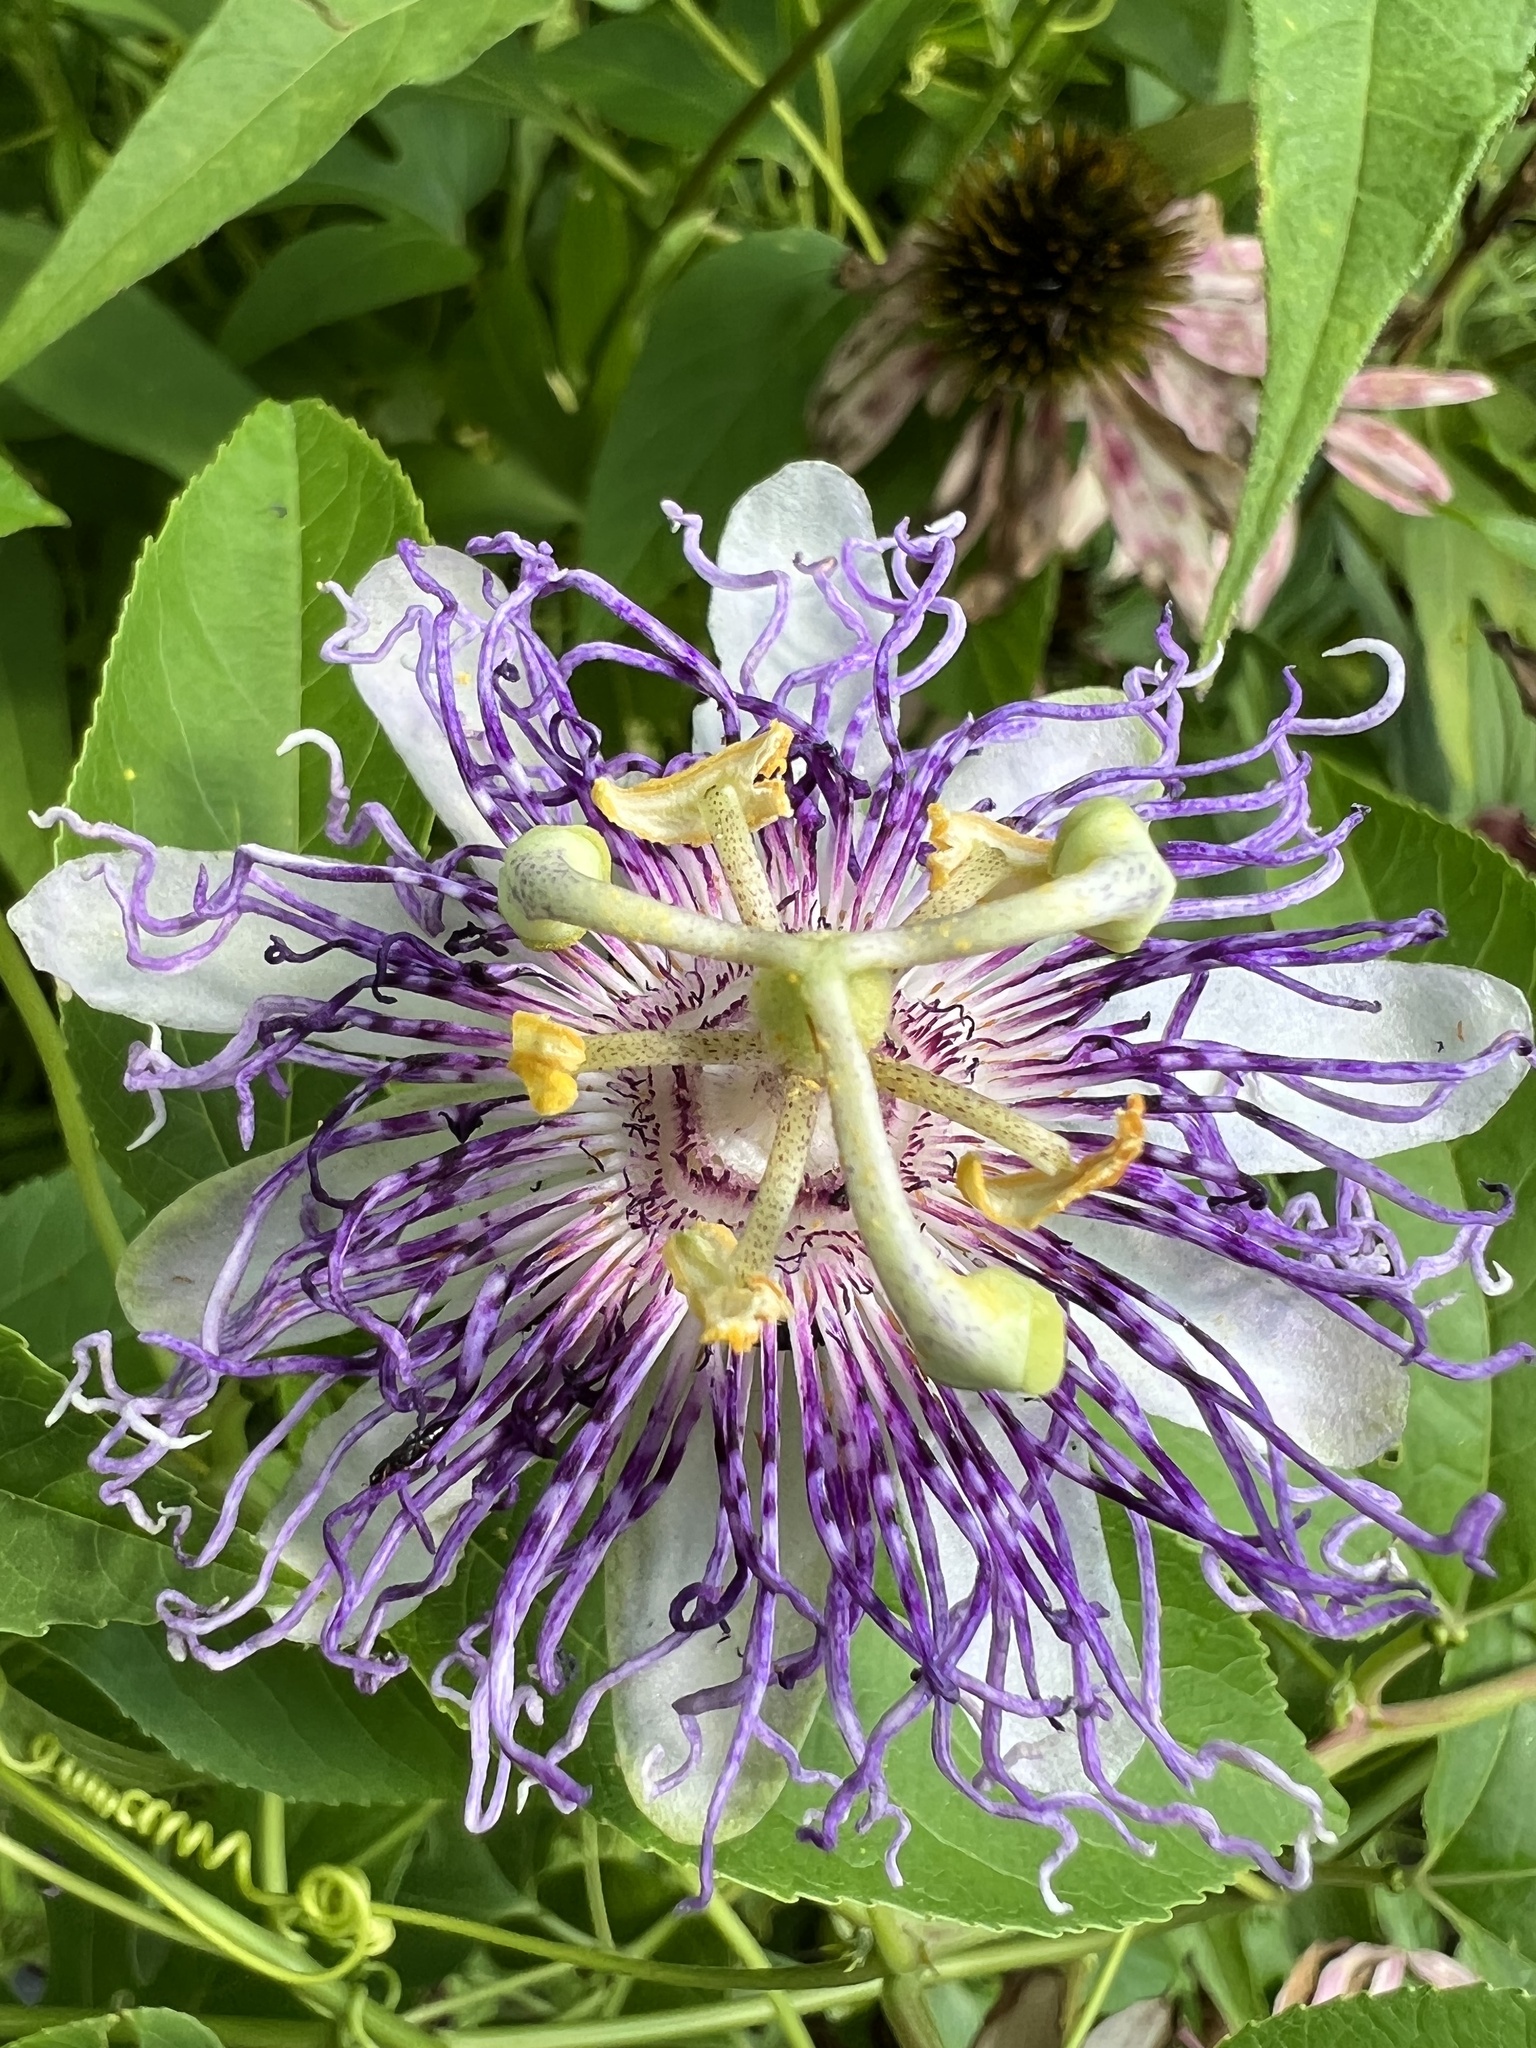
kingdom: Plantae
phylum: Tracheophyta
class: Magnoliopsida
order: Malpighiales
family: Passifloraceae
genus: Passiflora
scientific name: Passiflora incarnata
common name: Apricot-vine
